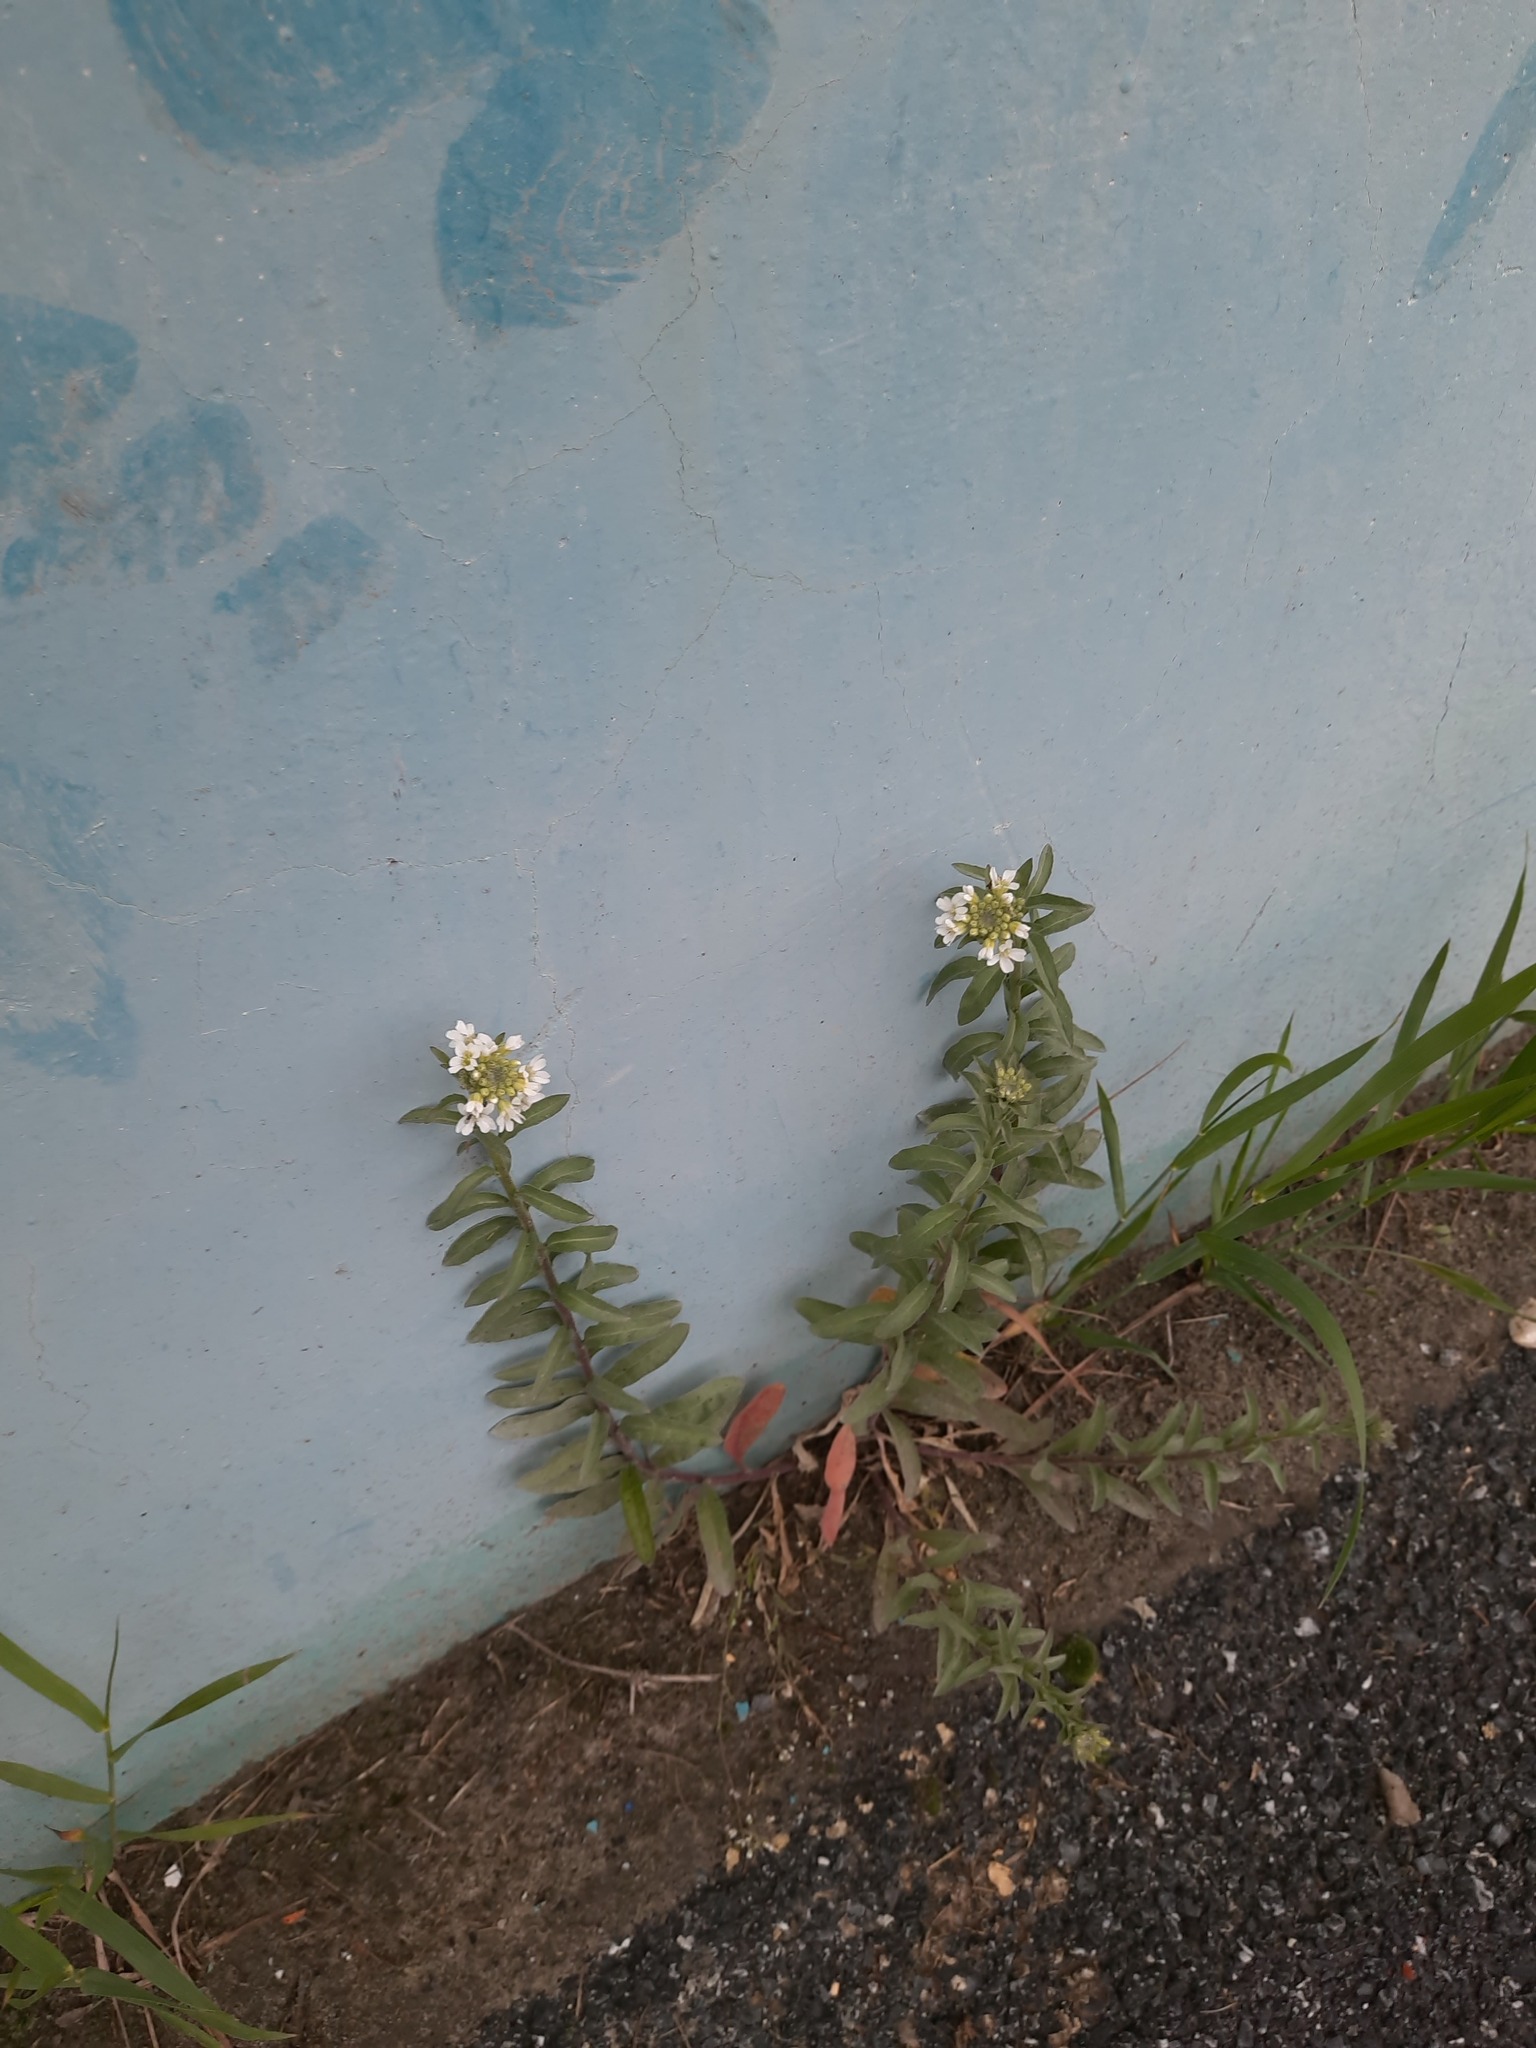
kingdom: Plantae
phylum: Tracheophyta
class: Magnoliopsida
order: Brassicales
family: Brassicaceae
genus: Berteroa
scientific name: Berteroa incana
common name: Hoary alison
